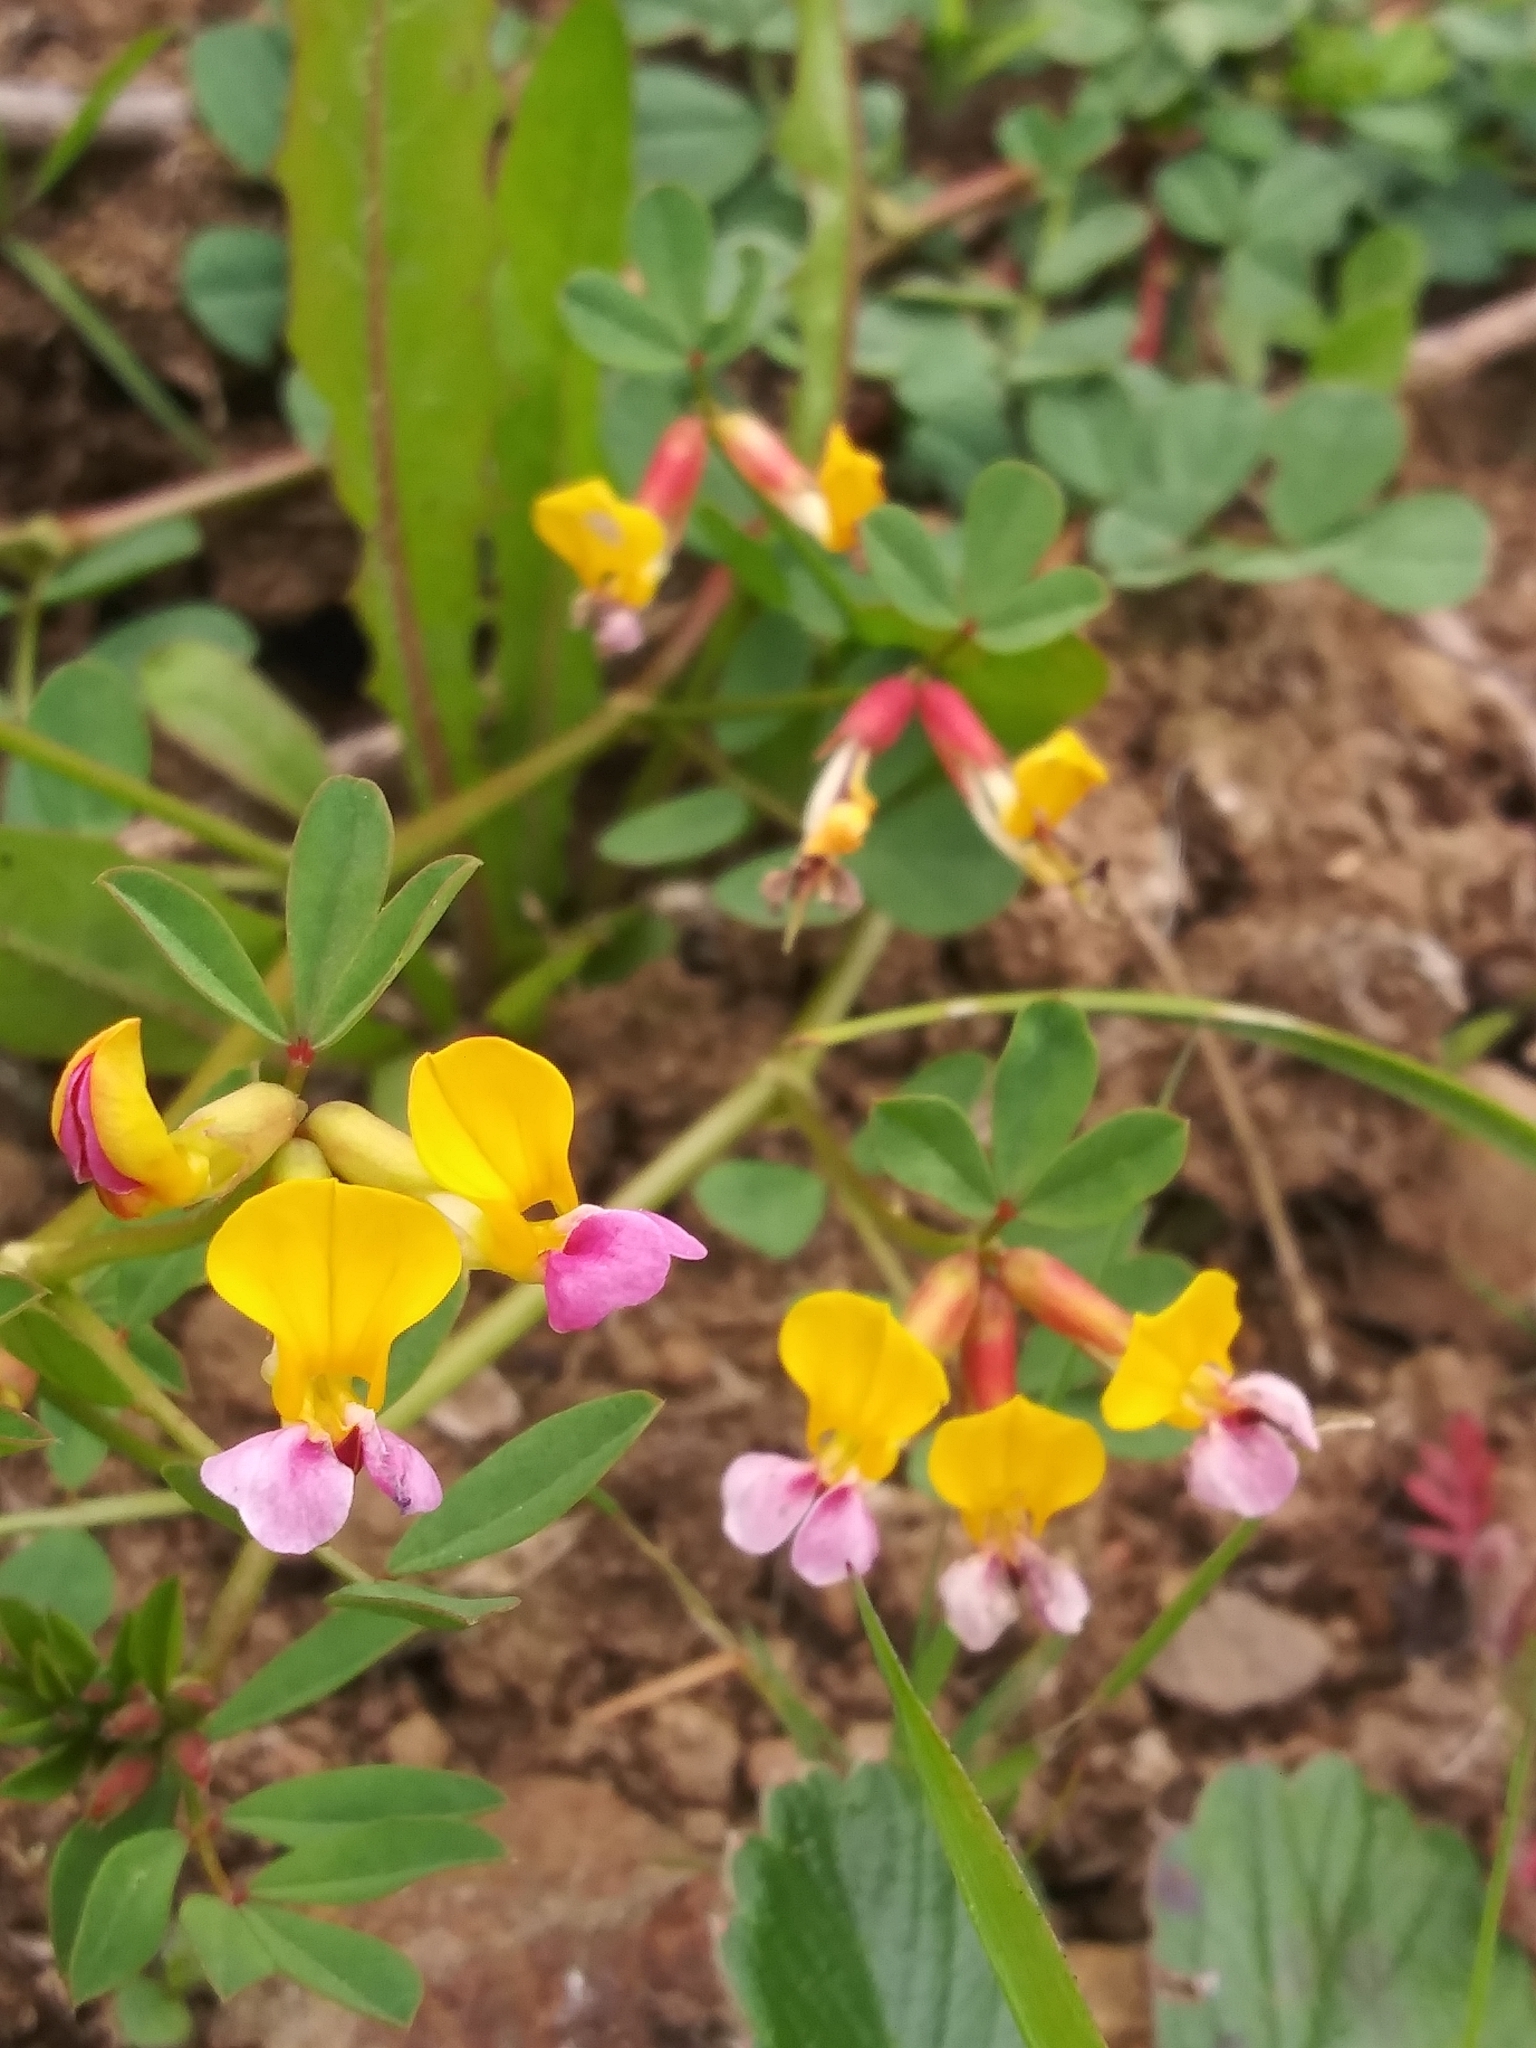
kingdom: Plantae
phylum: Tracheophyta
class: Magnoliopsida
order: Fabales
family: Fabaceae
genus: Hosackia
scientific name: Hosackia gracilis
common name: Seaside bird's-foot lotus
